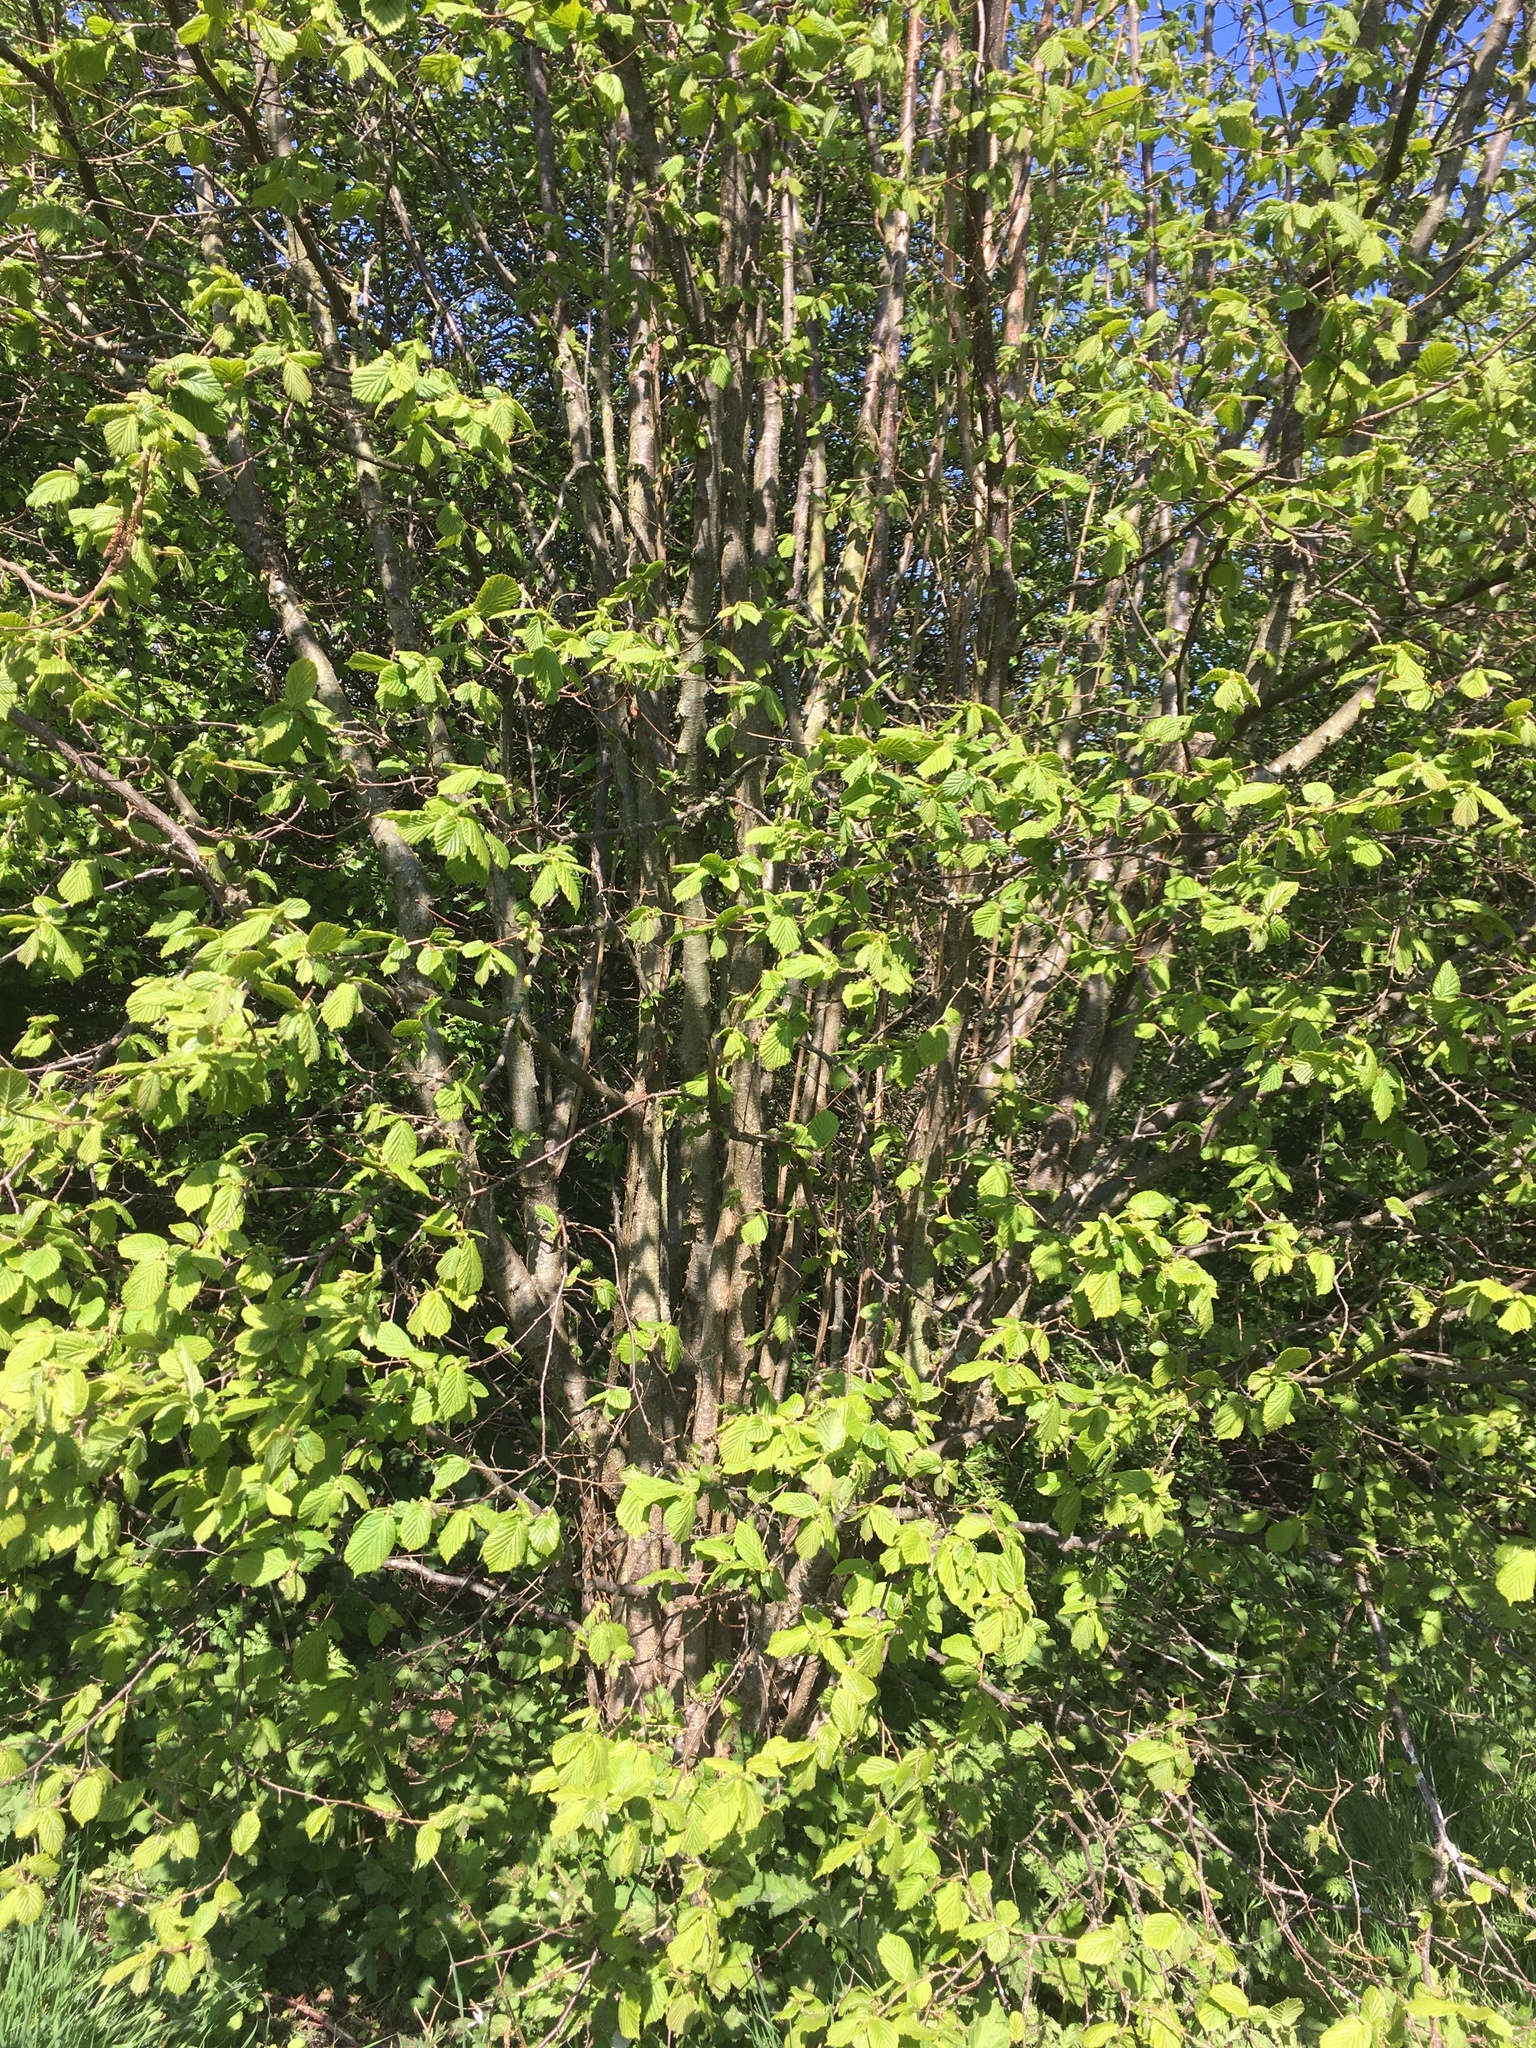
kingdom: Plantae
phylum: Tracheophyta
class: Magnoliopsida
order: Fagales
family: Betulaceae
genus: Corylus
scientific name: Corylus avellana
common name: European hazel
